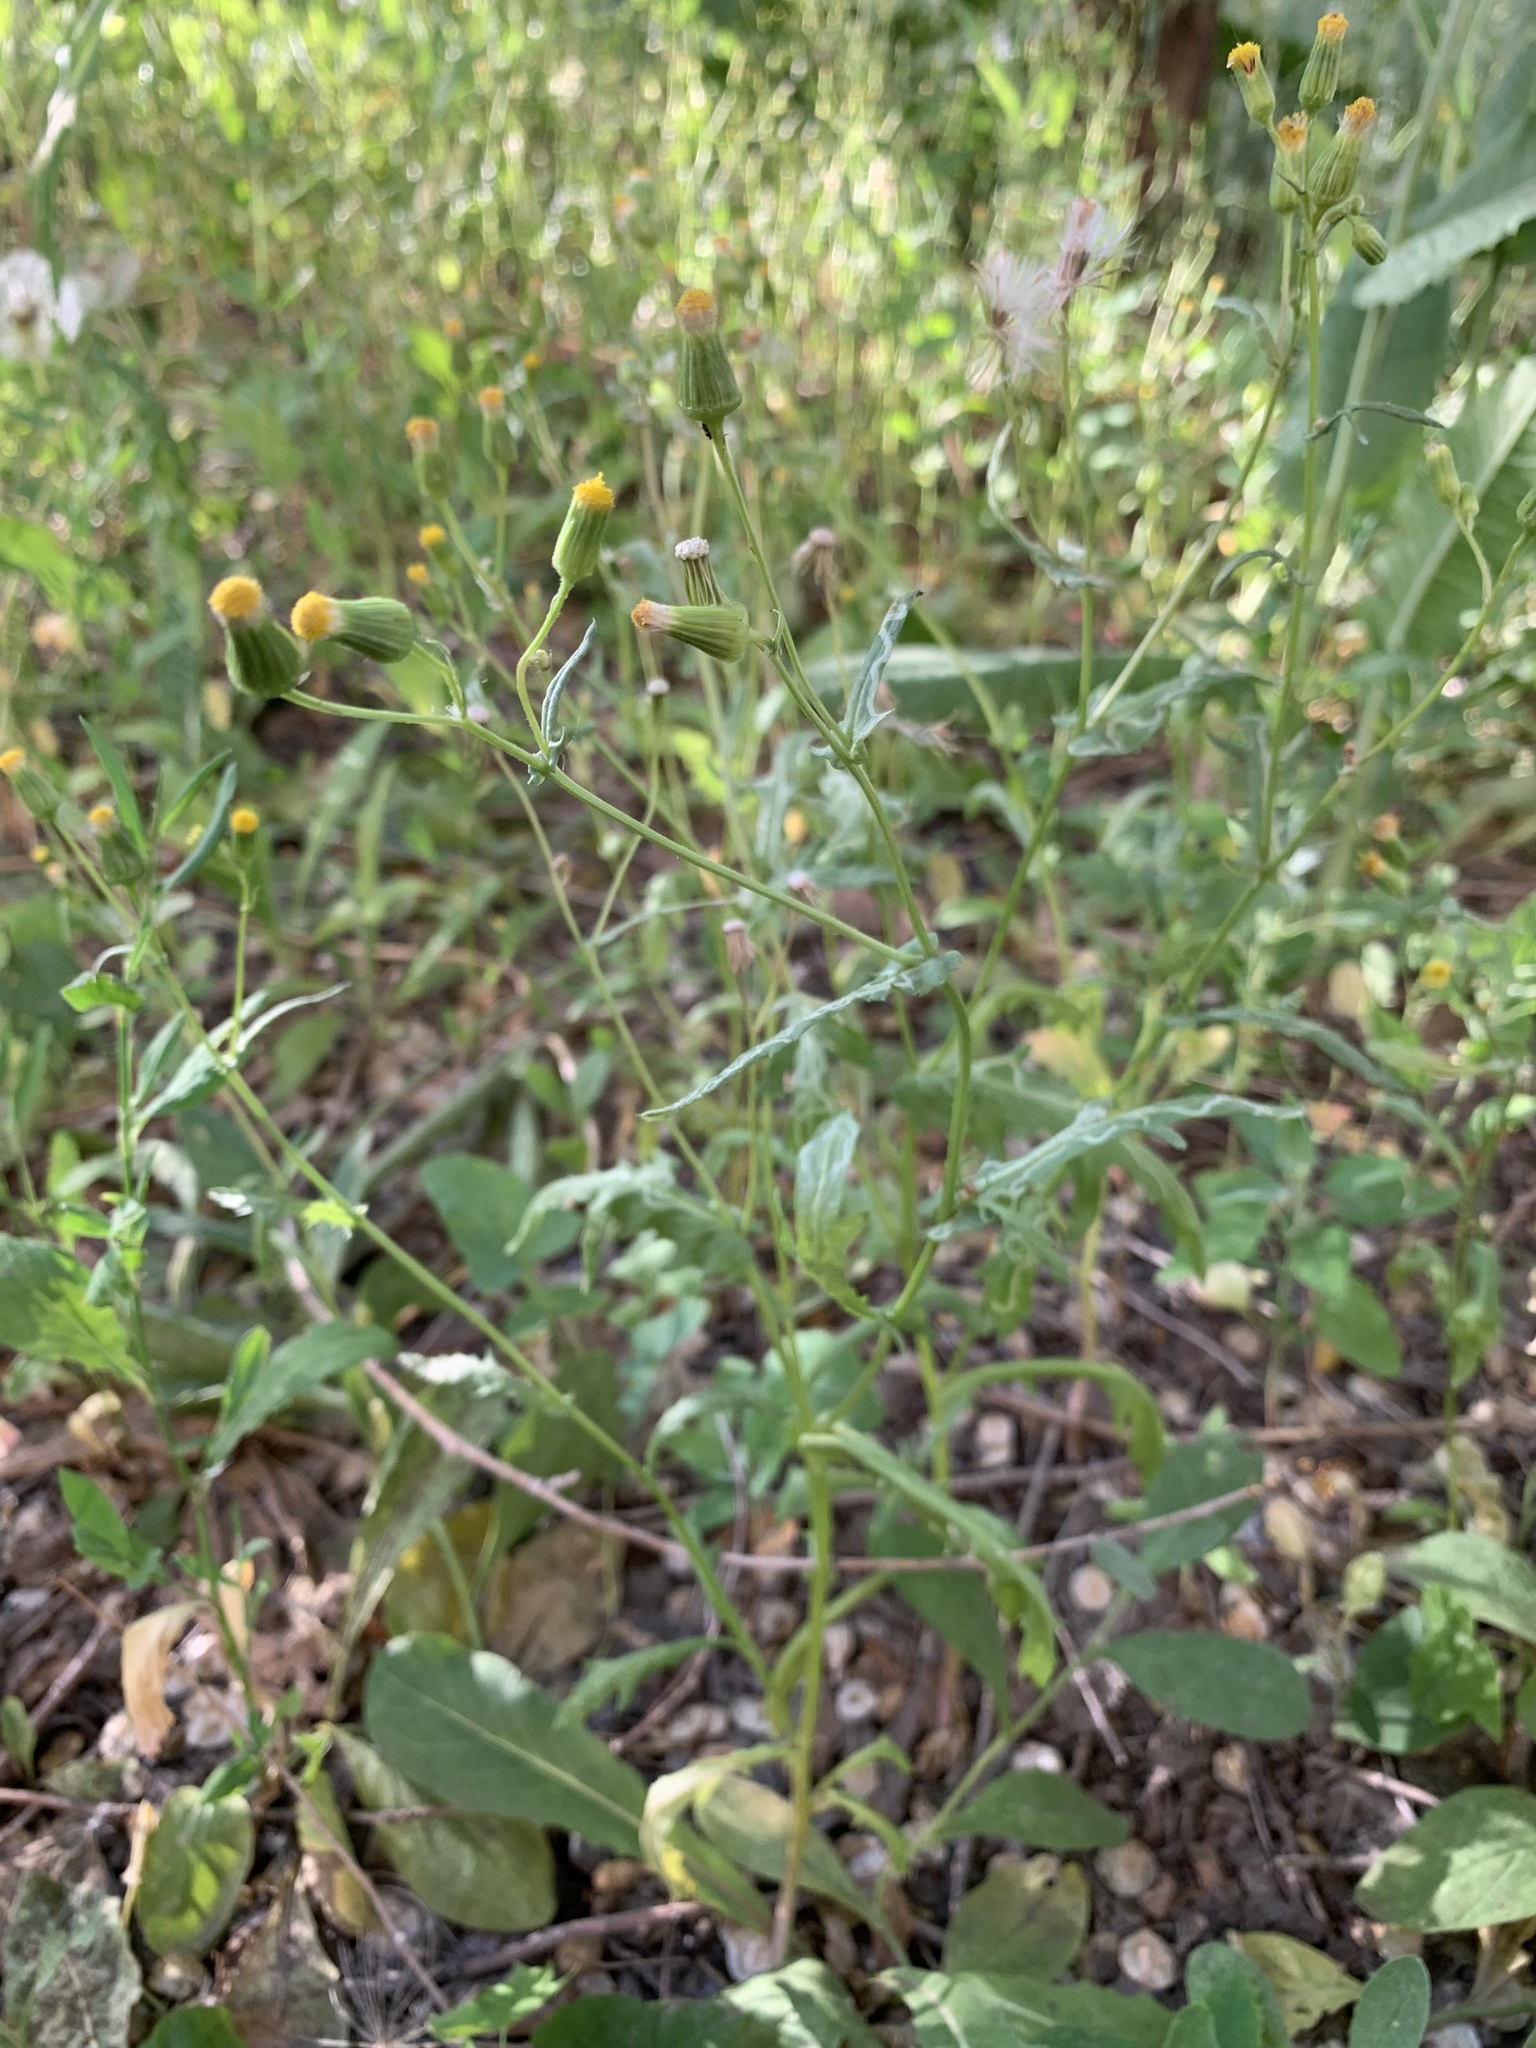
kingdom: Plantae
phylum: Tracheophyta
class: Magnoliopsida
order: Asterales
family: Asteraceae
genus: Senecio
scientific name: Senecio dubitabilis
